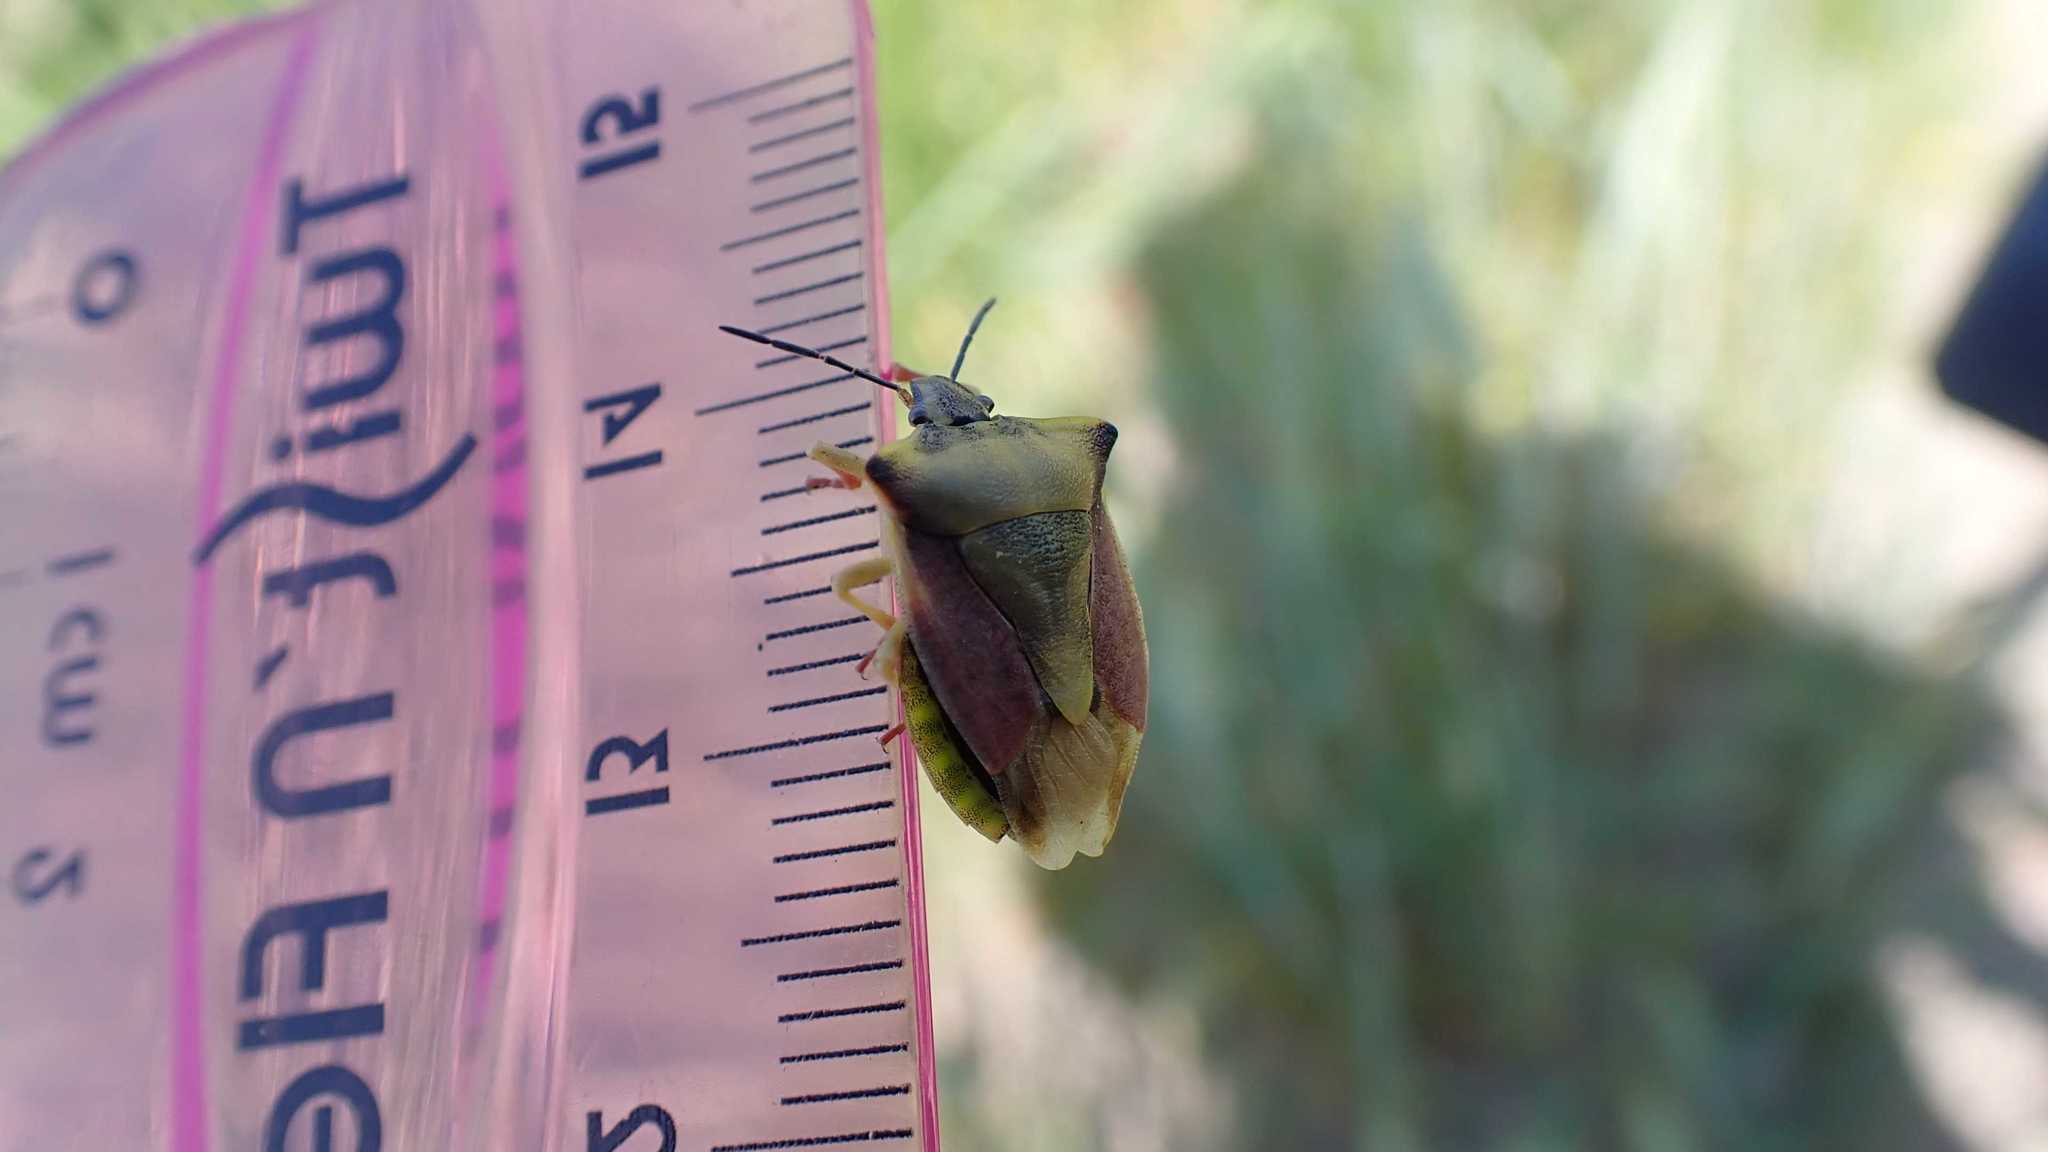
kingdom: Animalia
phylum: Arthropoda
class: Insecta
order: Hemiptera
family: Pentatomidae
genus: Carpocoris
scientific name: Carpocoris fuscispinus
